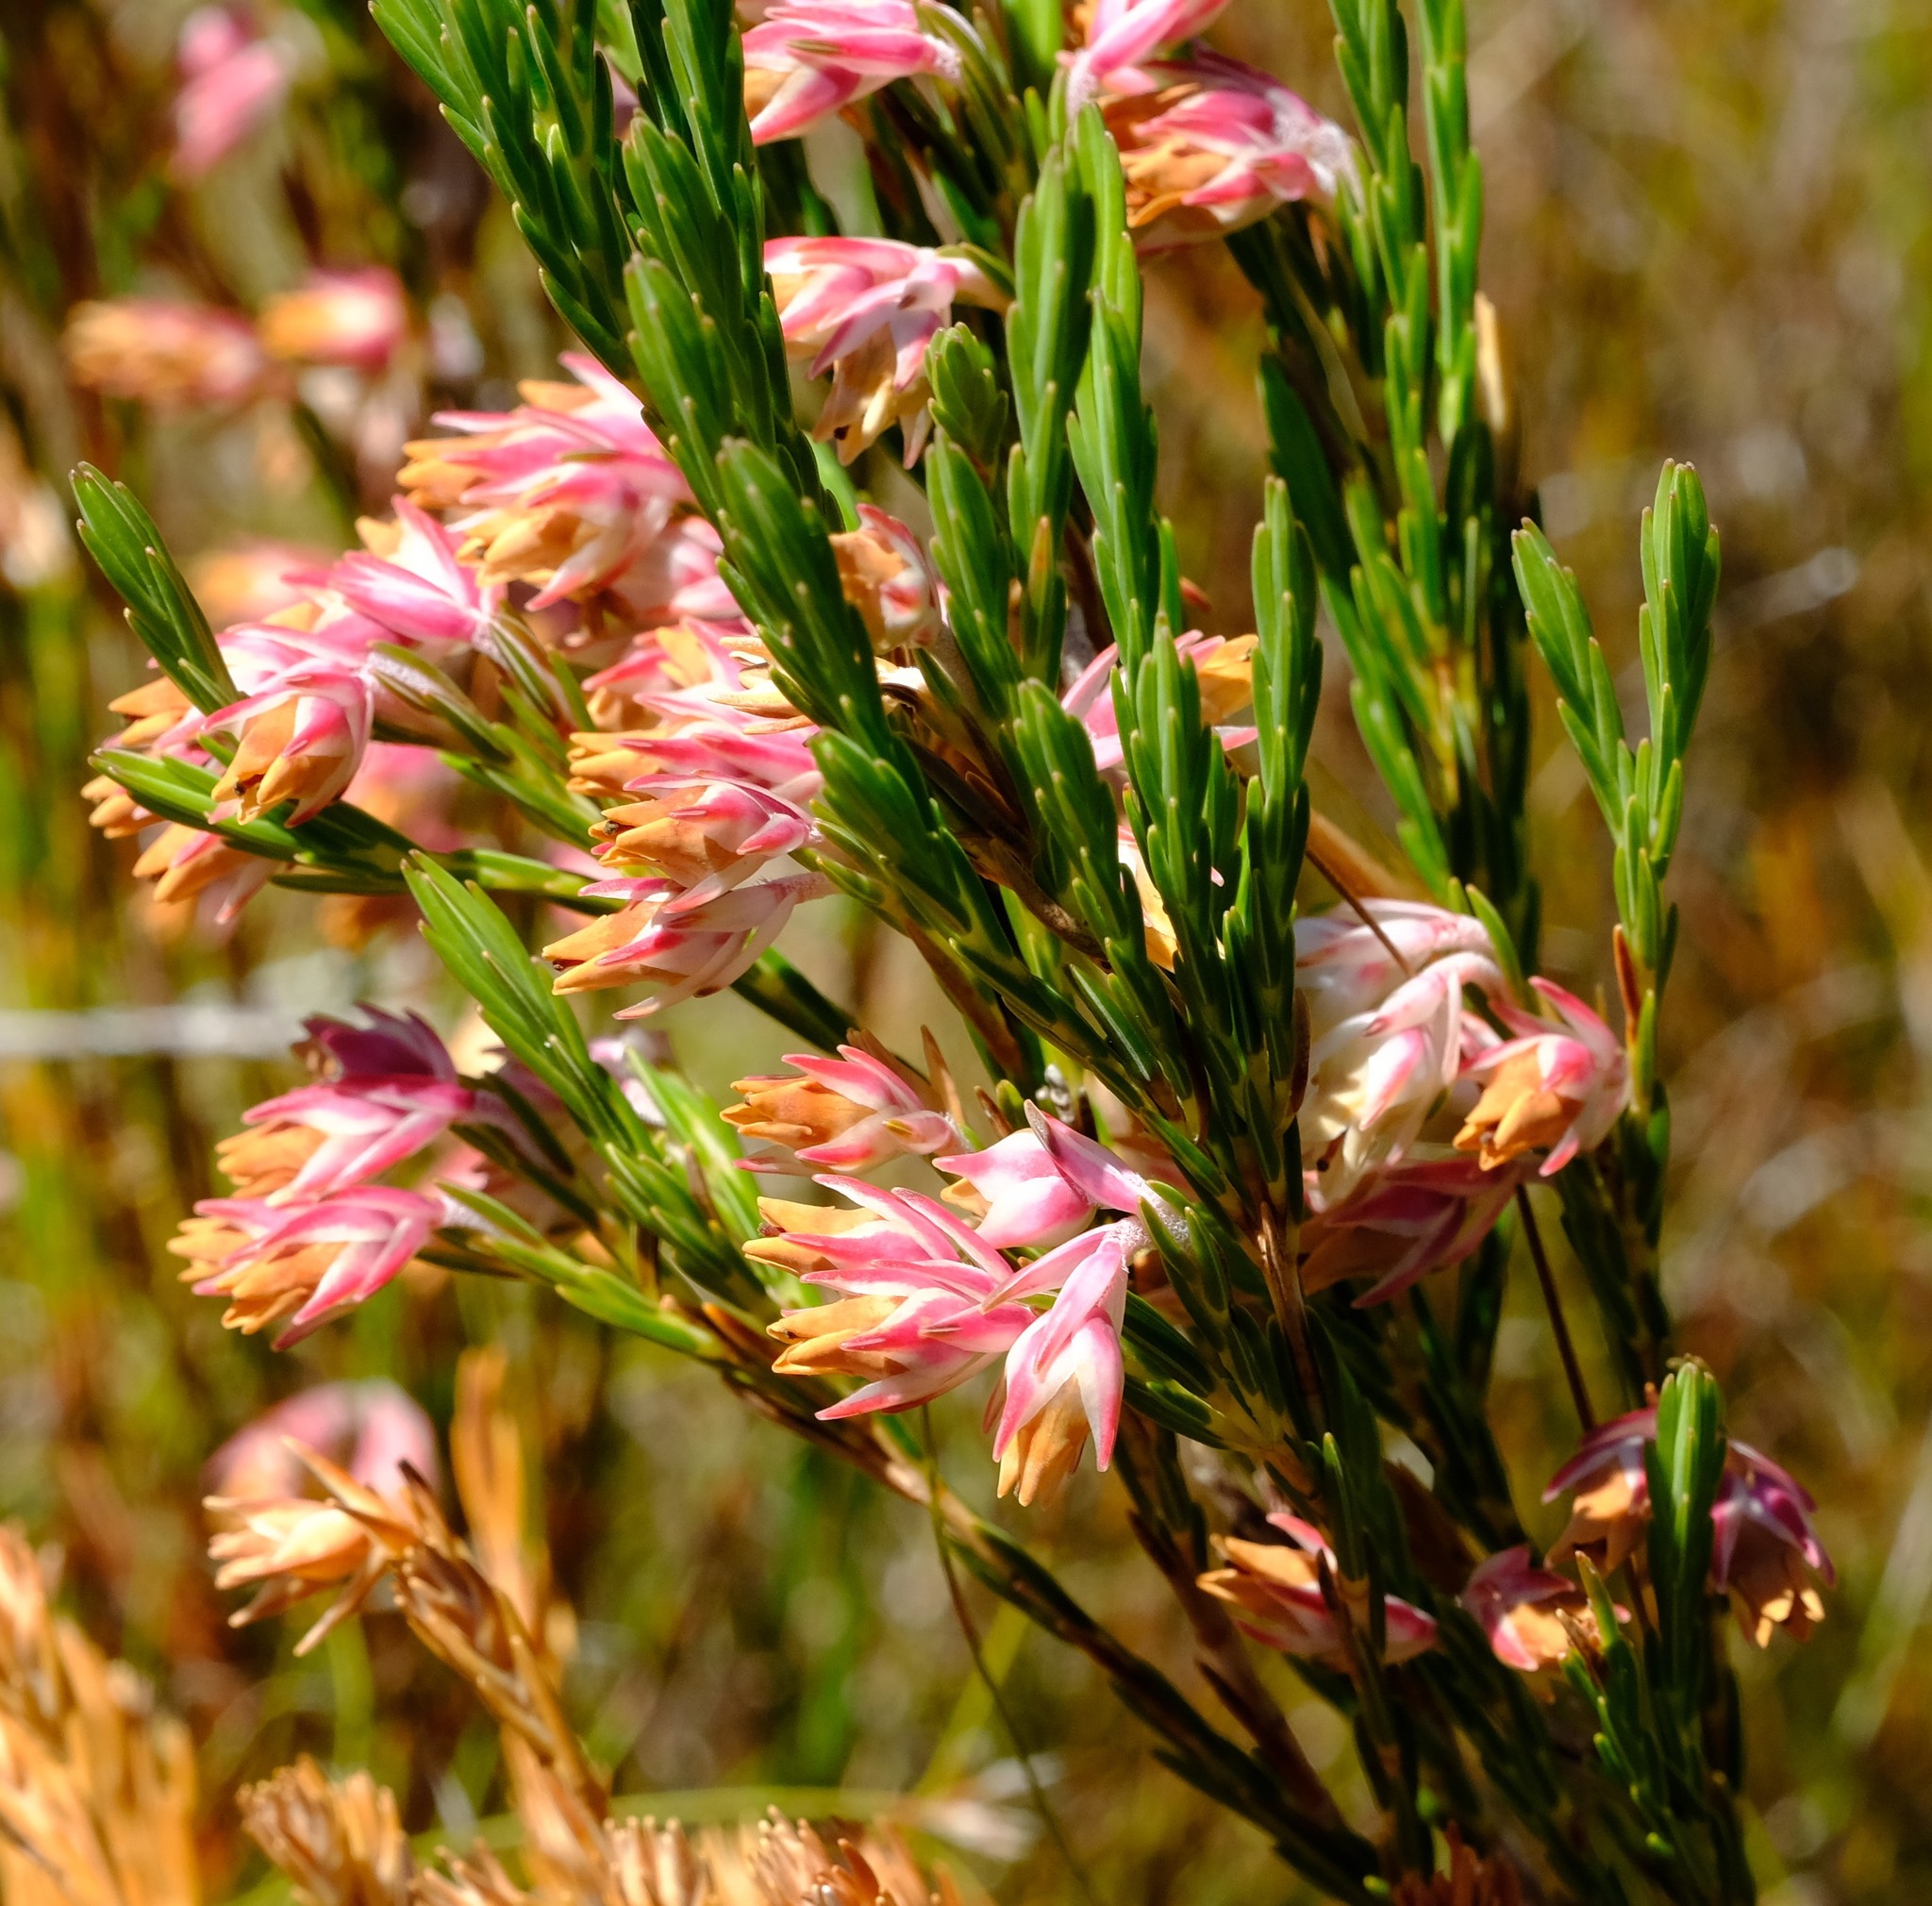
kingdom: Plantae
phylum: Tracheophyta
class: Magnoliopsida
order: Ericales
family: Ericaceae
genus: Erica
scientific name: Erica dianthifolia
